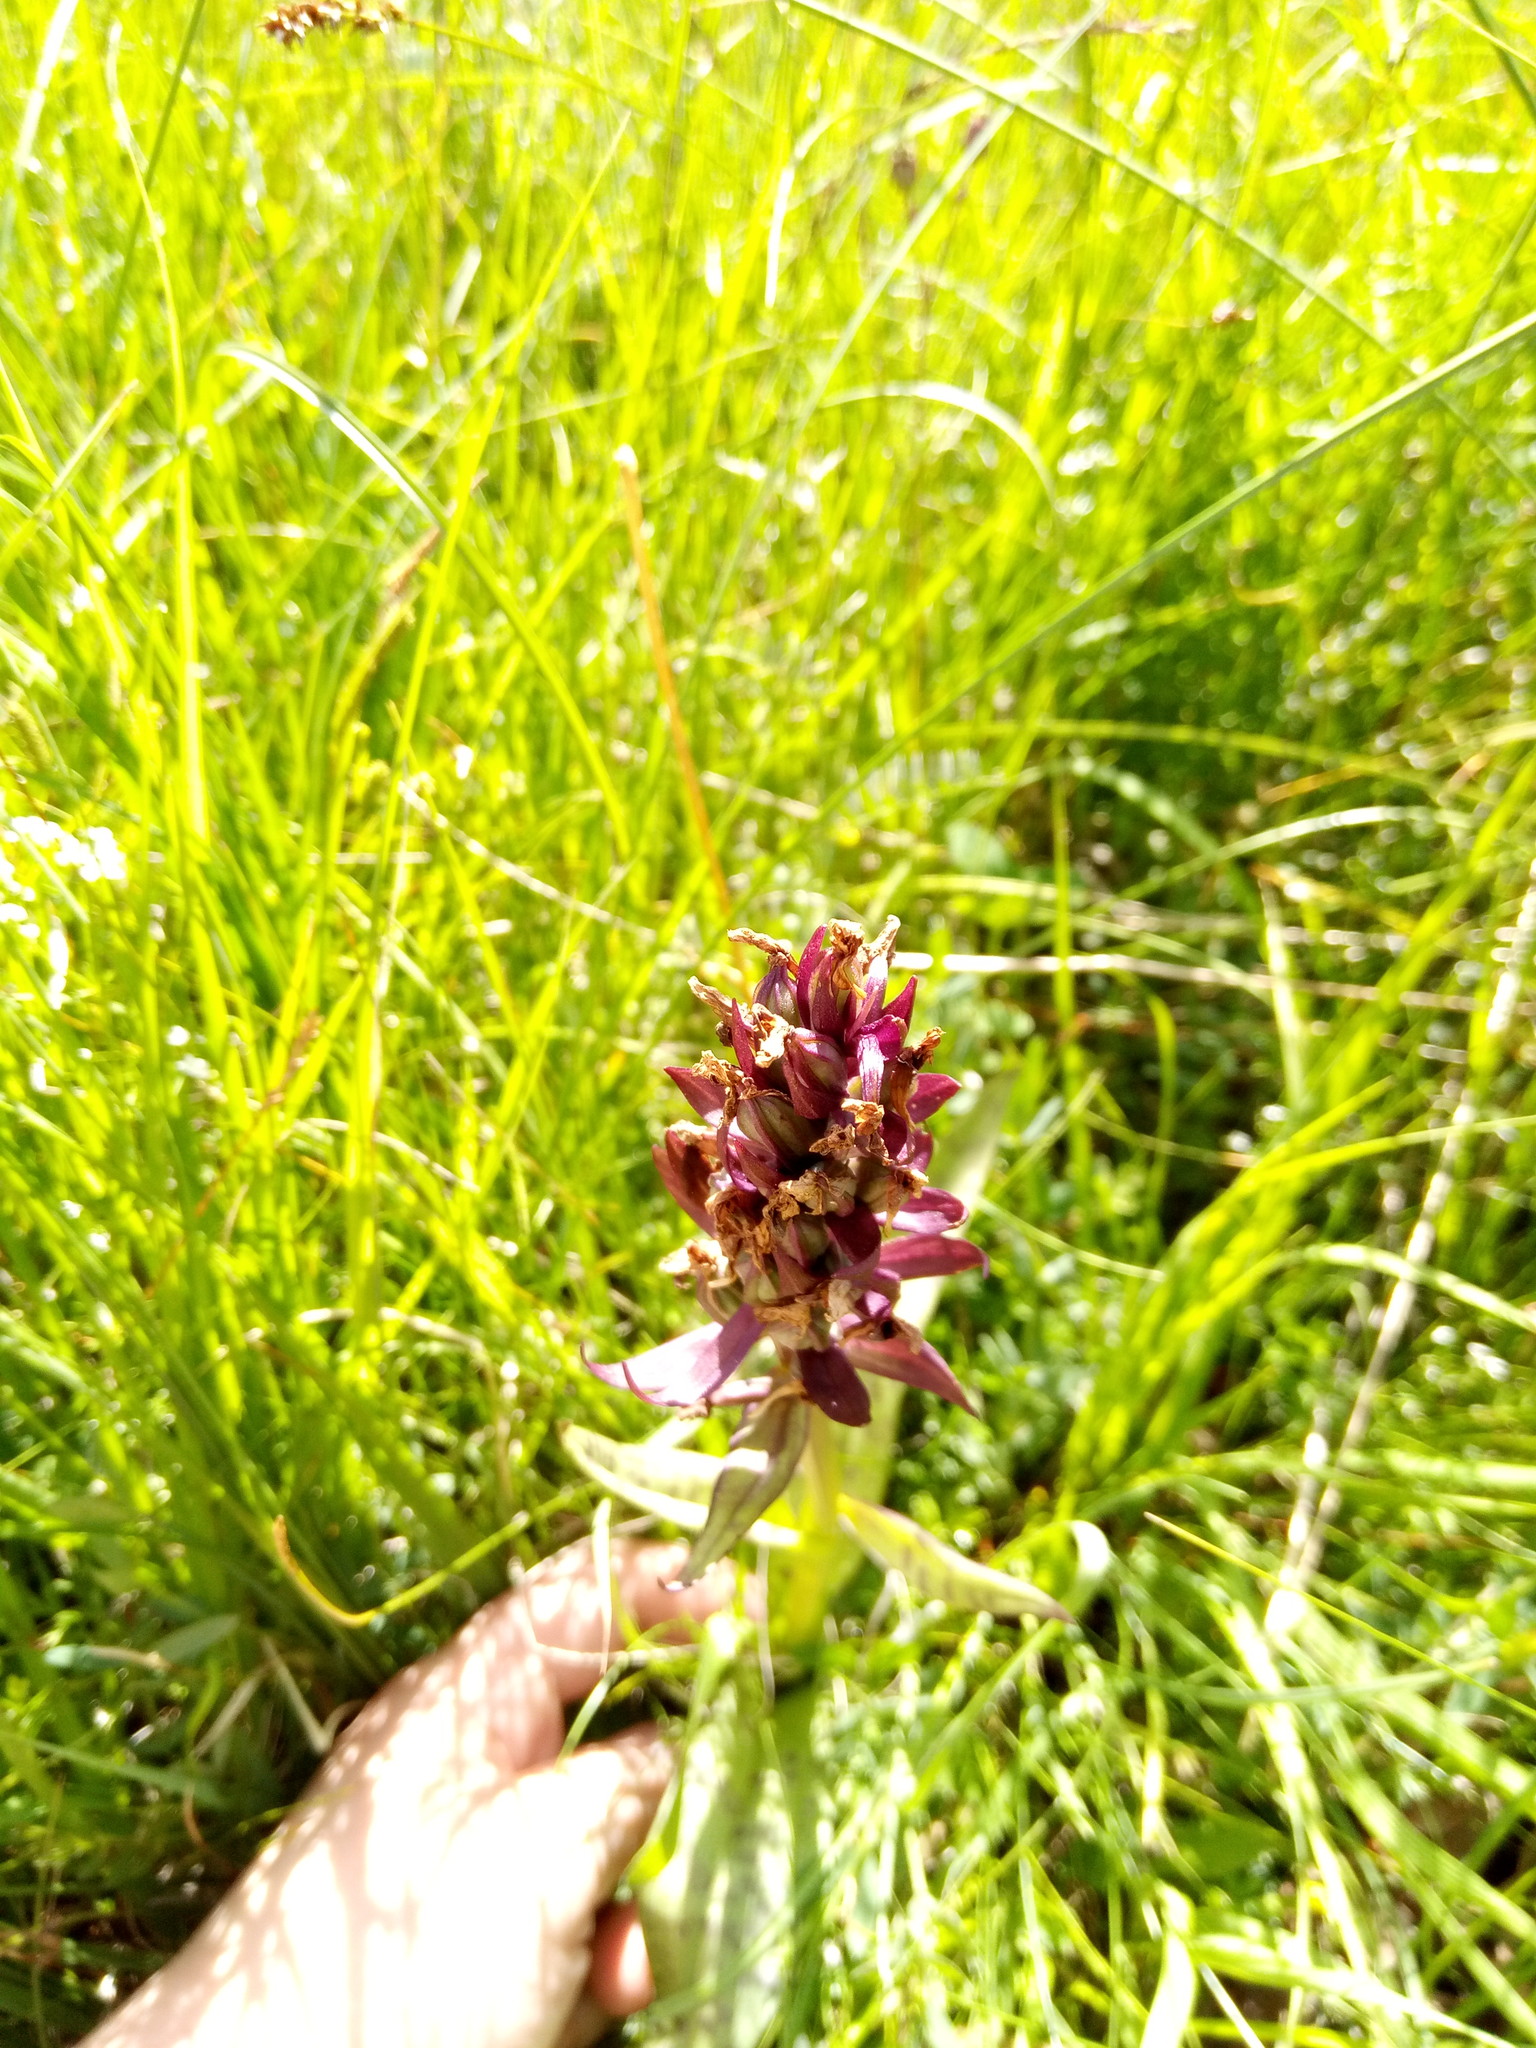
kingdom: Plantae
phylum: Tracheophyta
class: Liliopsida
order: Asparagales
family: Orchidaceae
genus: Dactylorhiza
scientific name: Dactylorhiza majalis
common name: Marsh orchid
